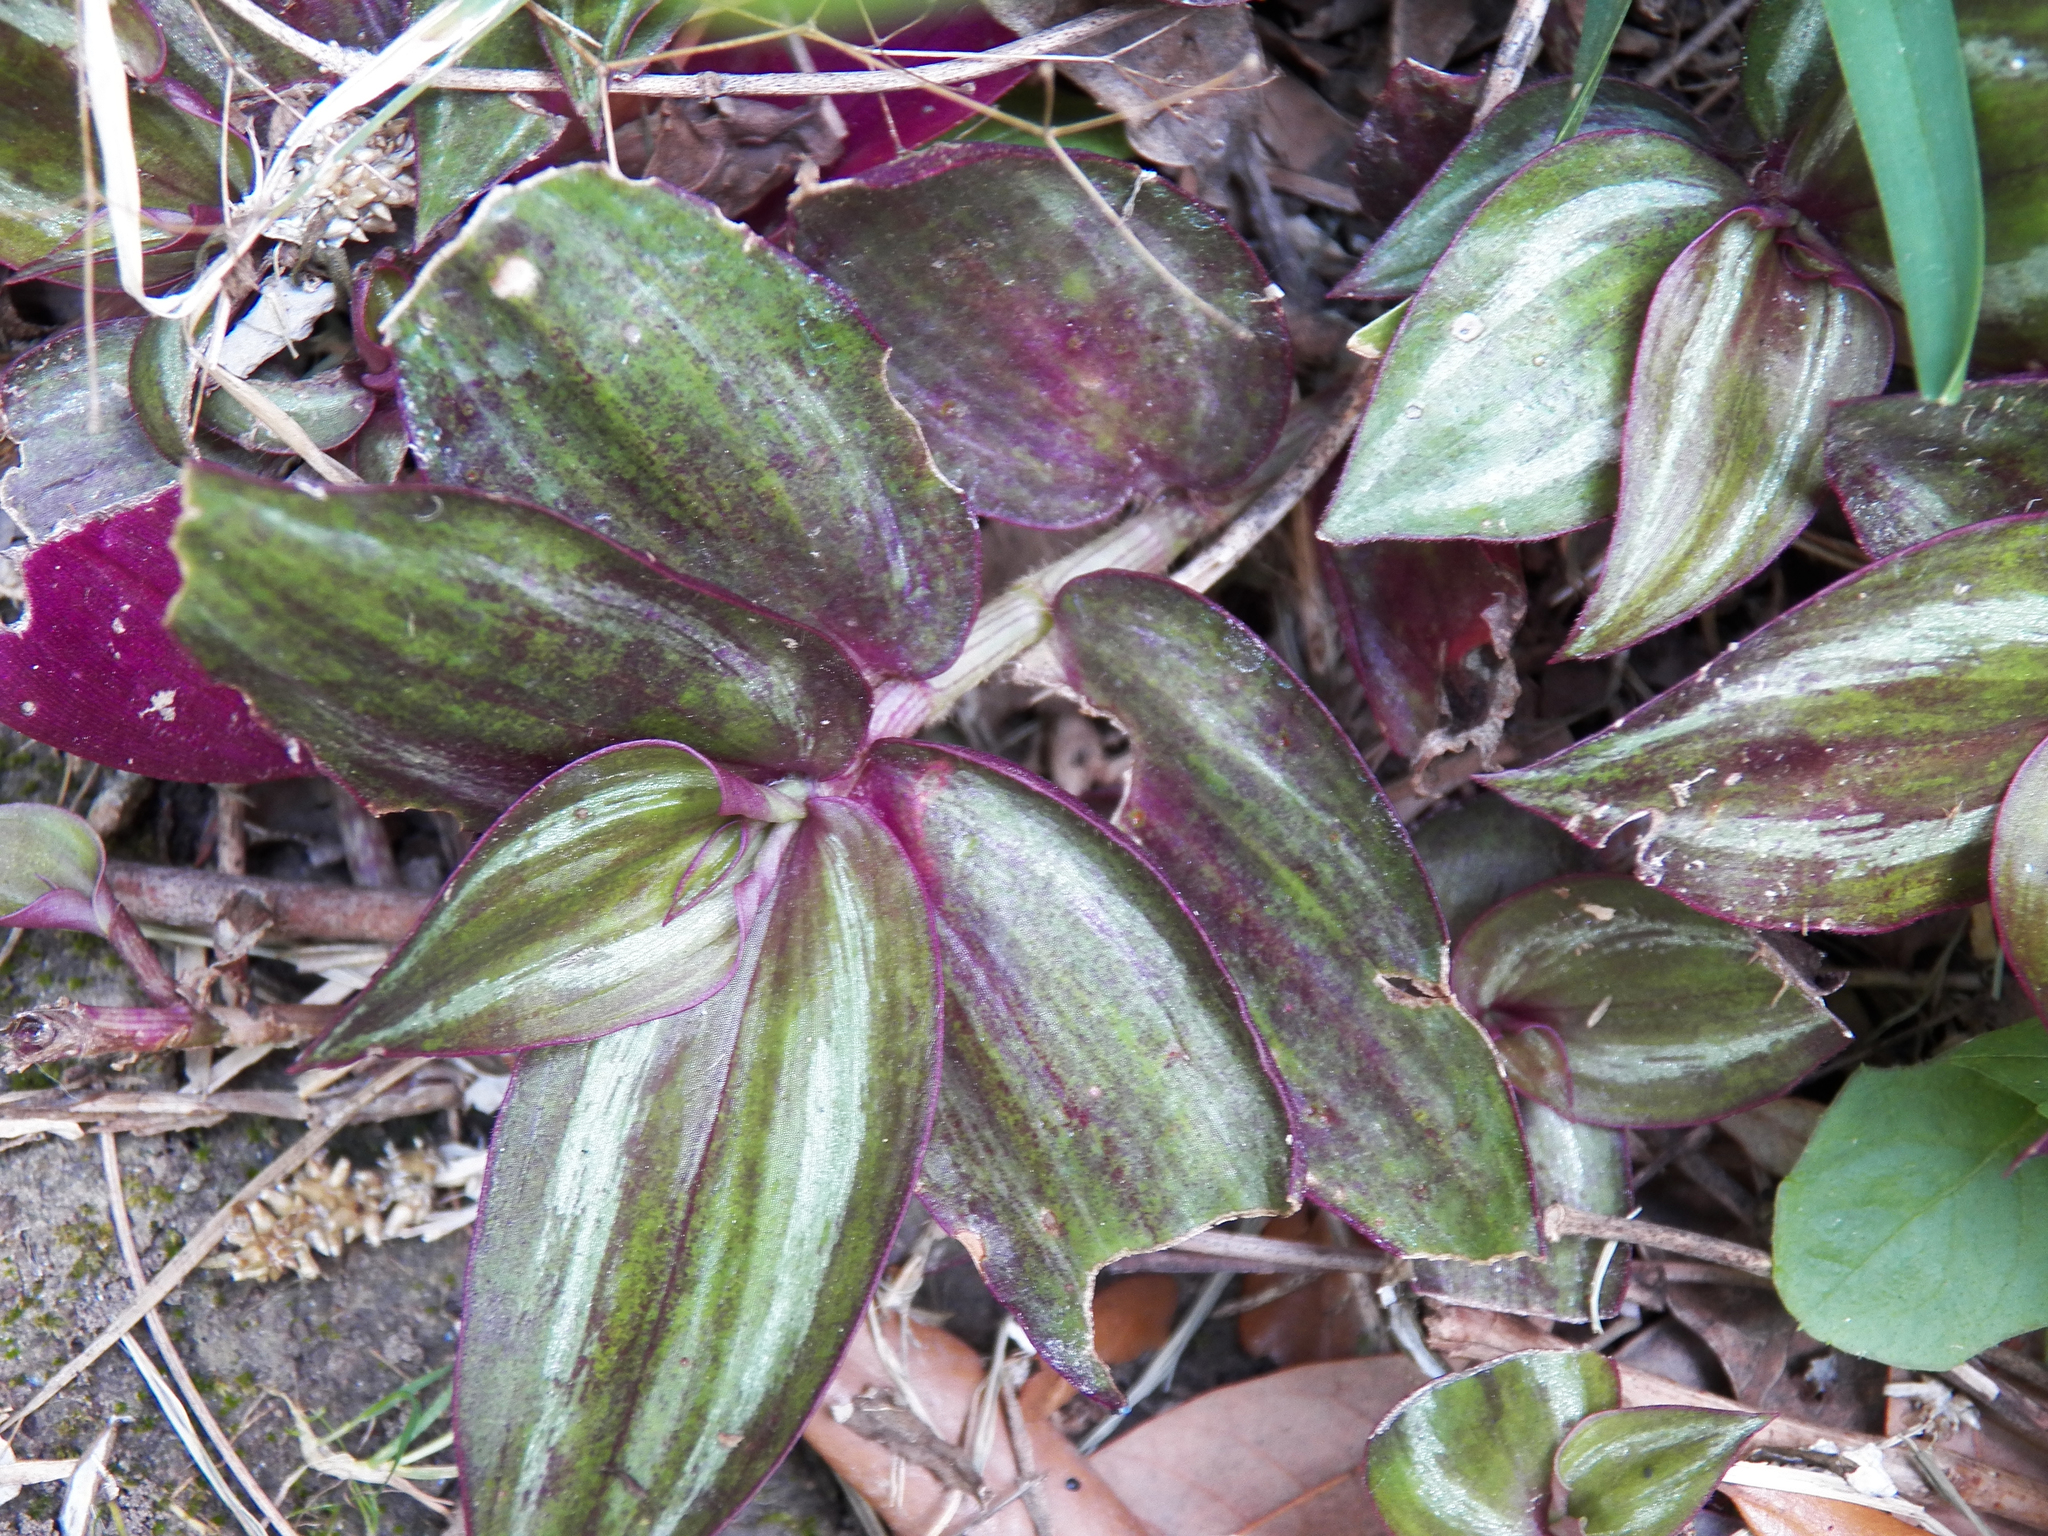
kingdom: Plantae
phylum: Tracheophyta
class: Liliopsida
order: Commelinales
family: Commelinaceae
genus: Tradescantia
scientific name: Tradescantia zebrina
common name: Inchplant
